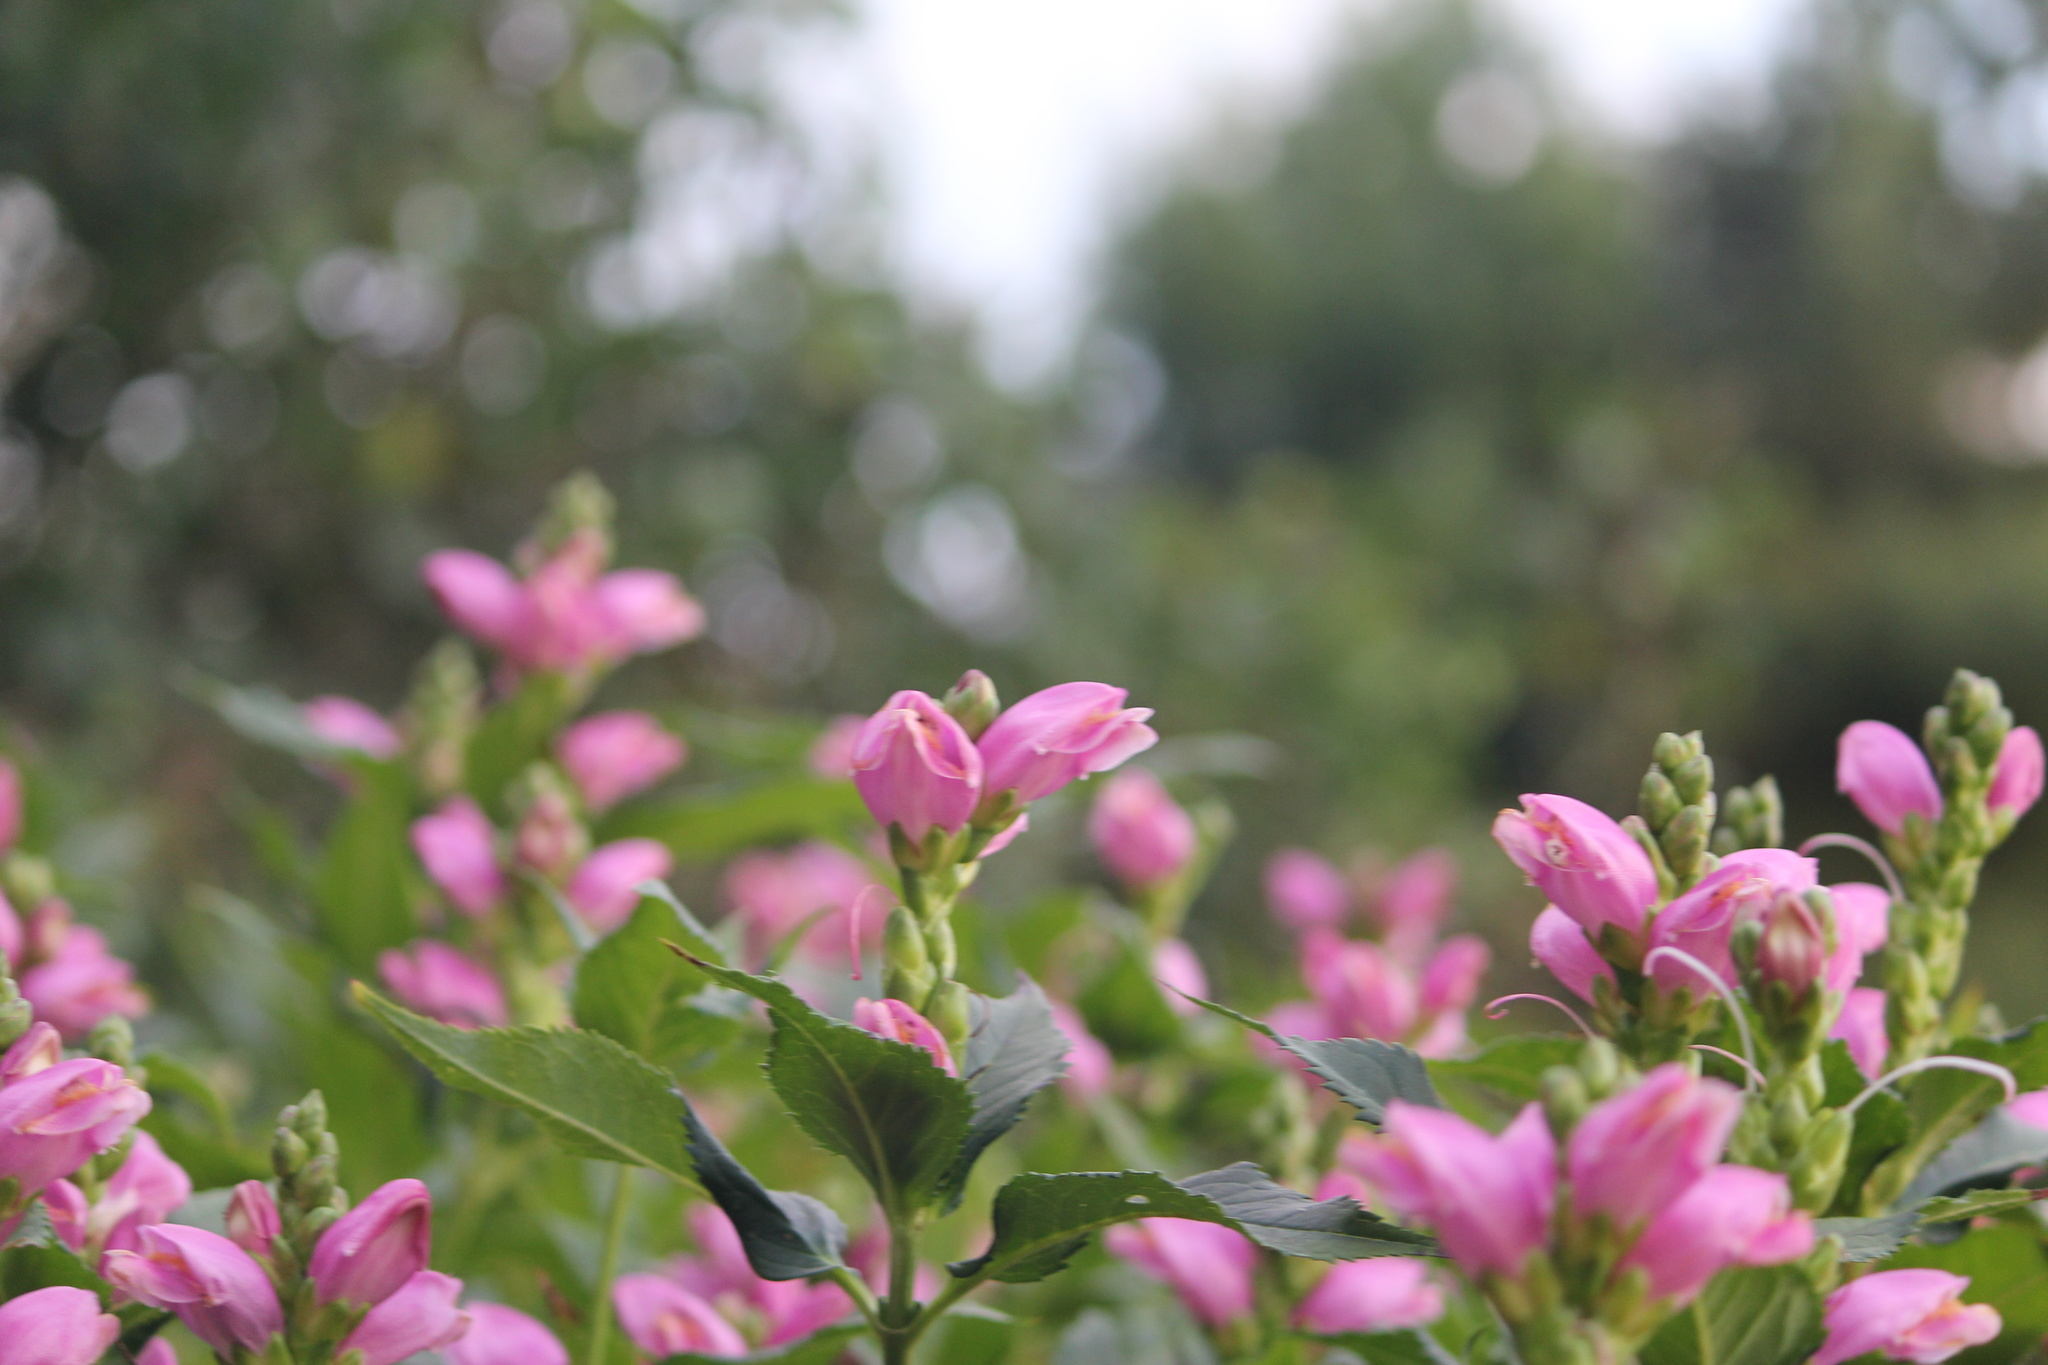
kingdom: Plantae
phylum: Tracheophyta
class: Magnoliopsida
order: Lamiales
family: Plantaginaceae
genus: Chelone
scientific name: Chelone lyonii
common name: Pink turtlehead
